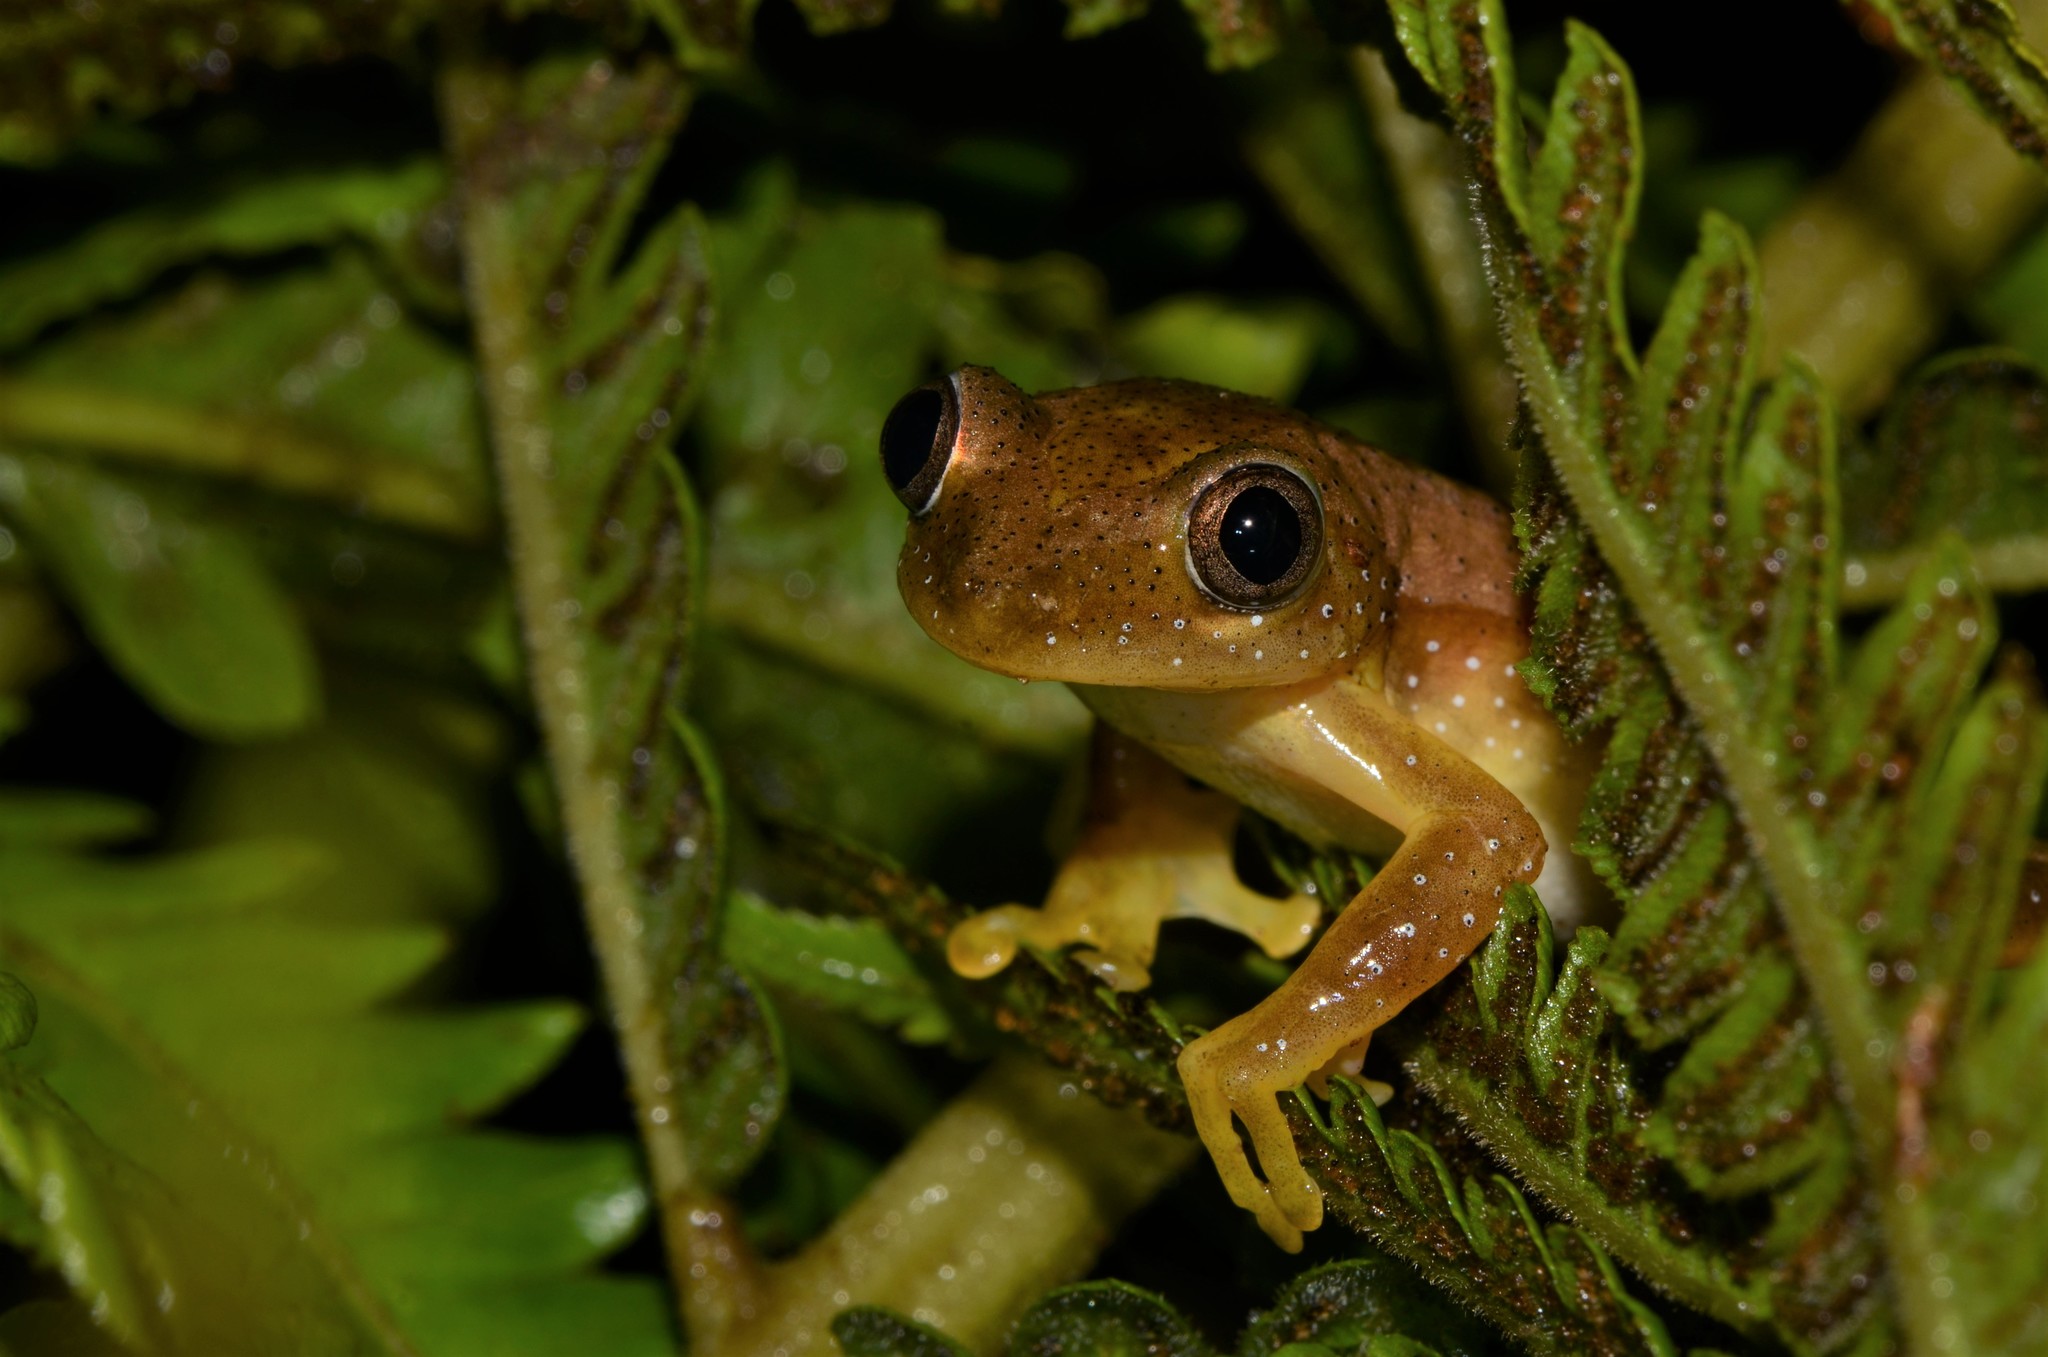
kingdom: Animalia
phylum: Chordata
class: Amphibia
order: Anura
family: Hyperoliidae
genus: Afrixalus
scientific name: Afrixalus fornasini
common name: Fornasini's spiny reed frog
